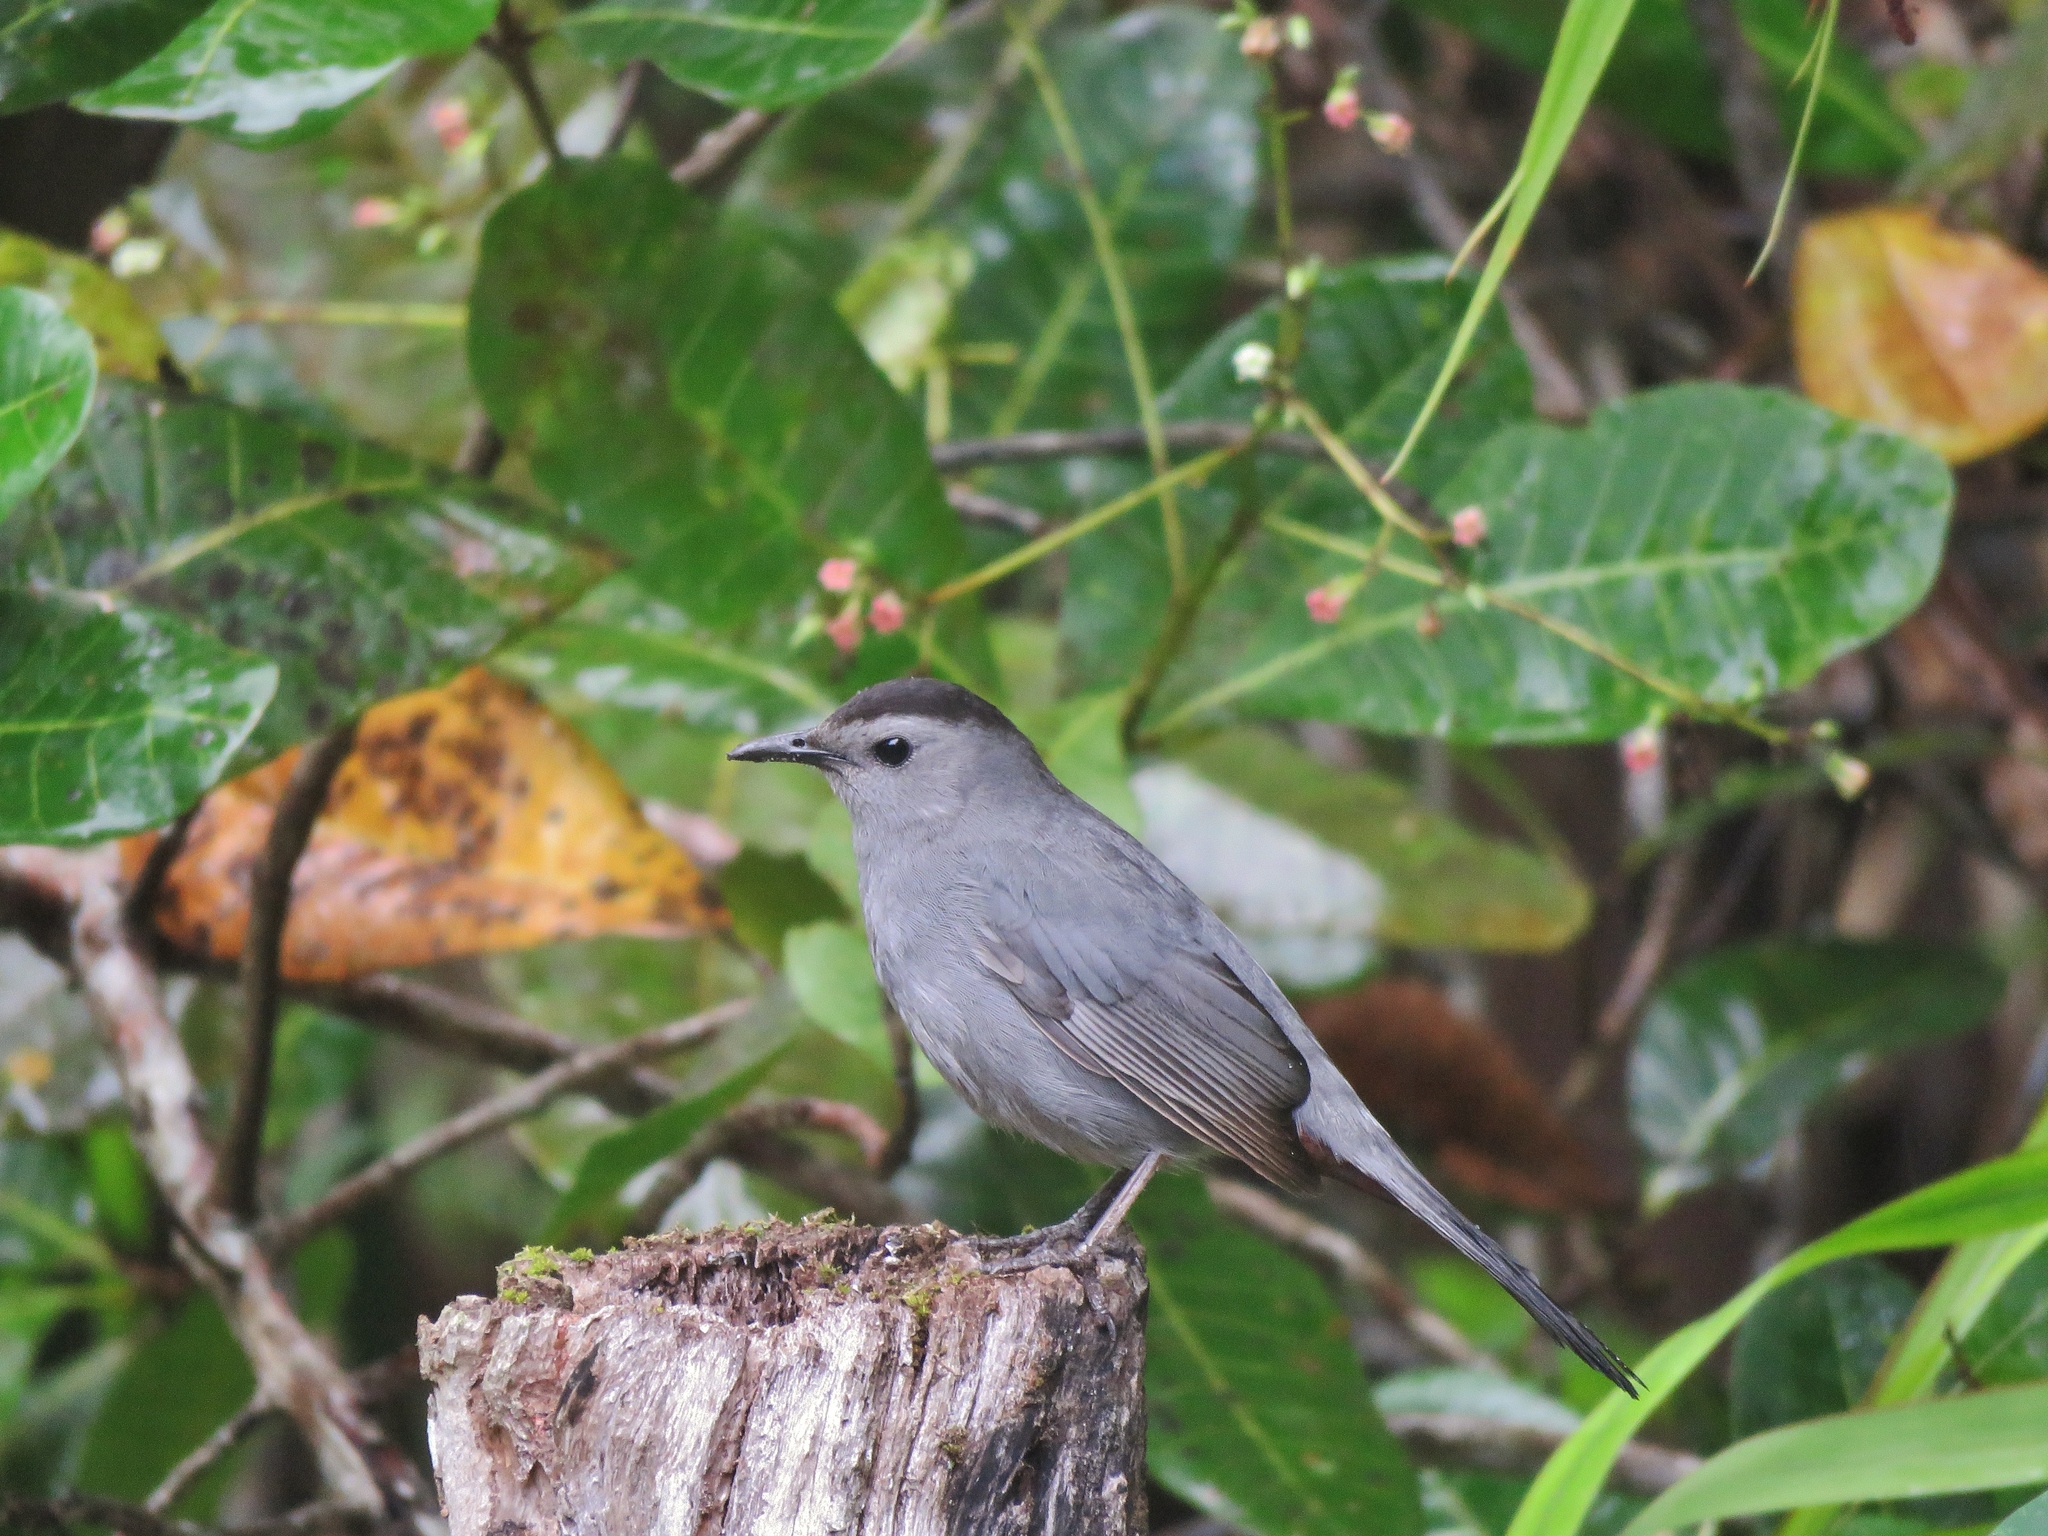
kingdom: Animalia
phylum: Chordata
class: Aves
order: Passeriformes
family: Mimidae
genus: Dumetella
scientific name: Dumetella carolinensis
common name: Gray catbird
